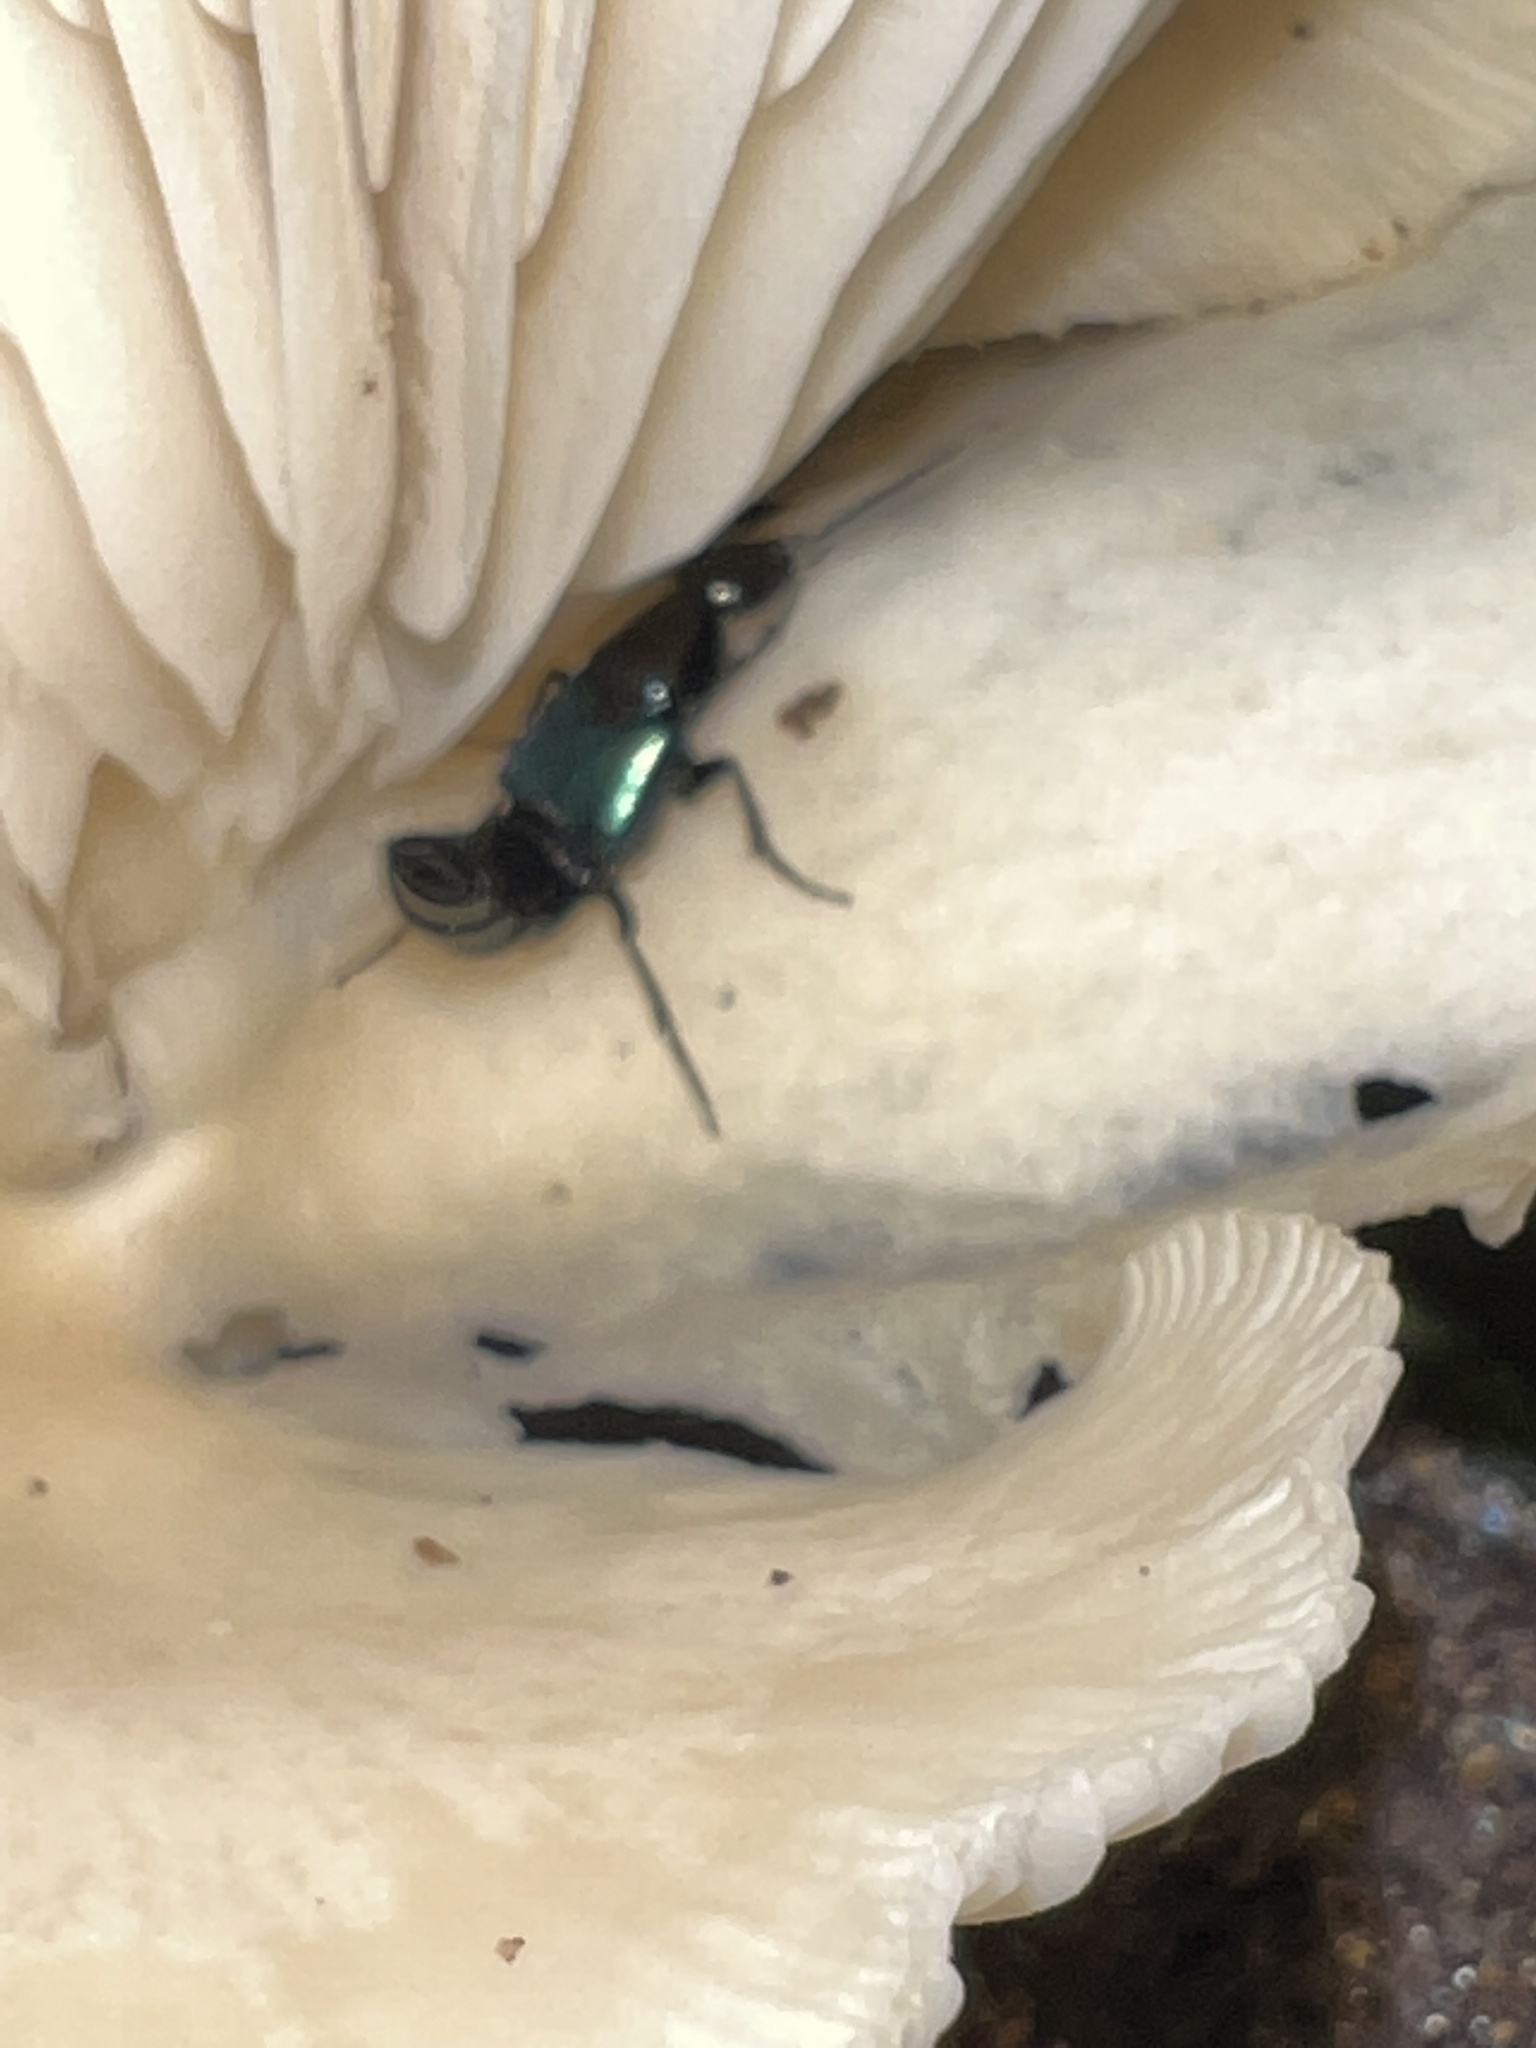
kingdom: Animalia
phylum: Arthropoda
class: Insecta
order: Coleoptera
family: Staphylinidae
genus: Philonthus
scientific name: Philonthus caeruleipennis
